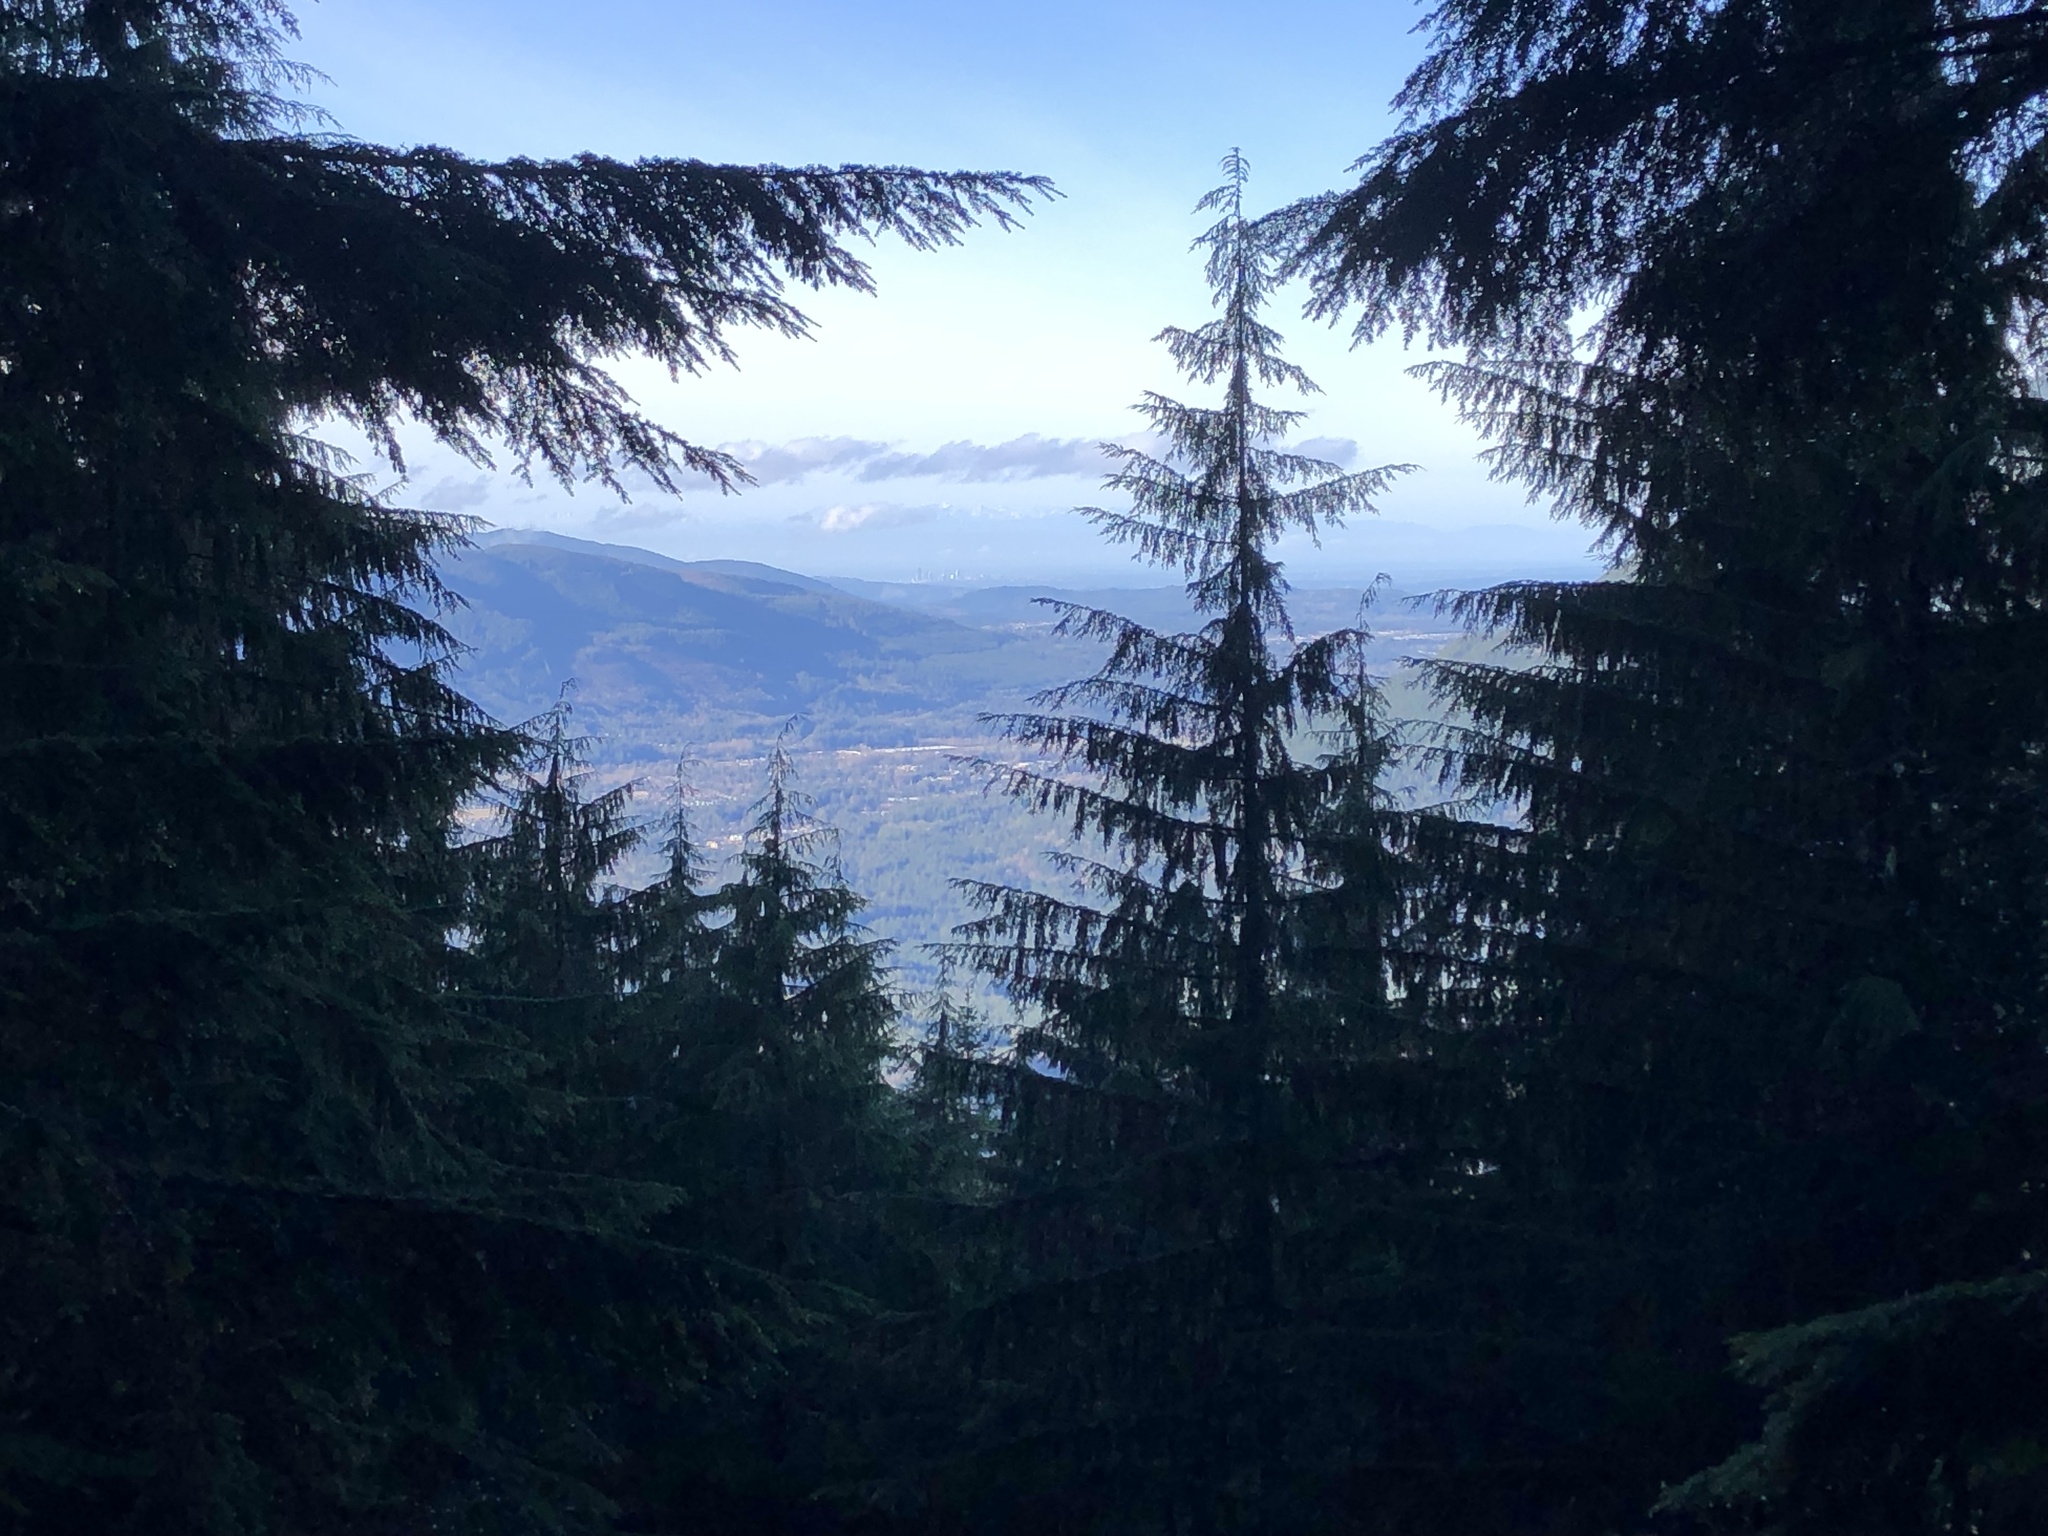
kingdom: Plantae
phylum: Tracheophyta
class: Pinopsida
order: Pinales
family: Pinaceae
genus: Tsuga
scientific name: Tsuga heterophylla
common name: Western hemlock
